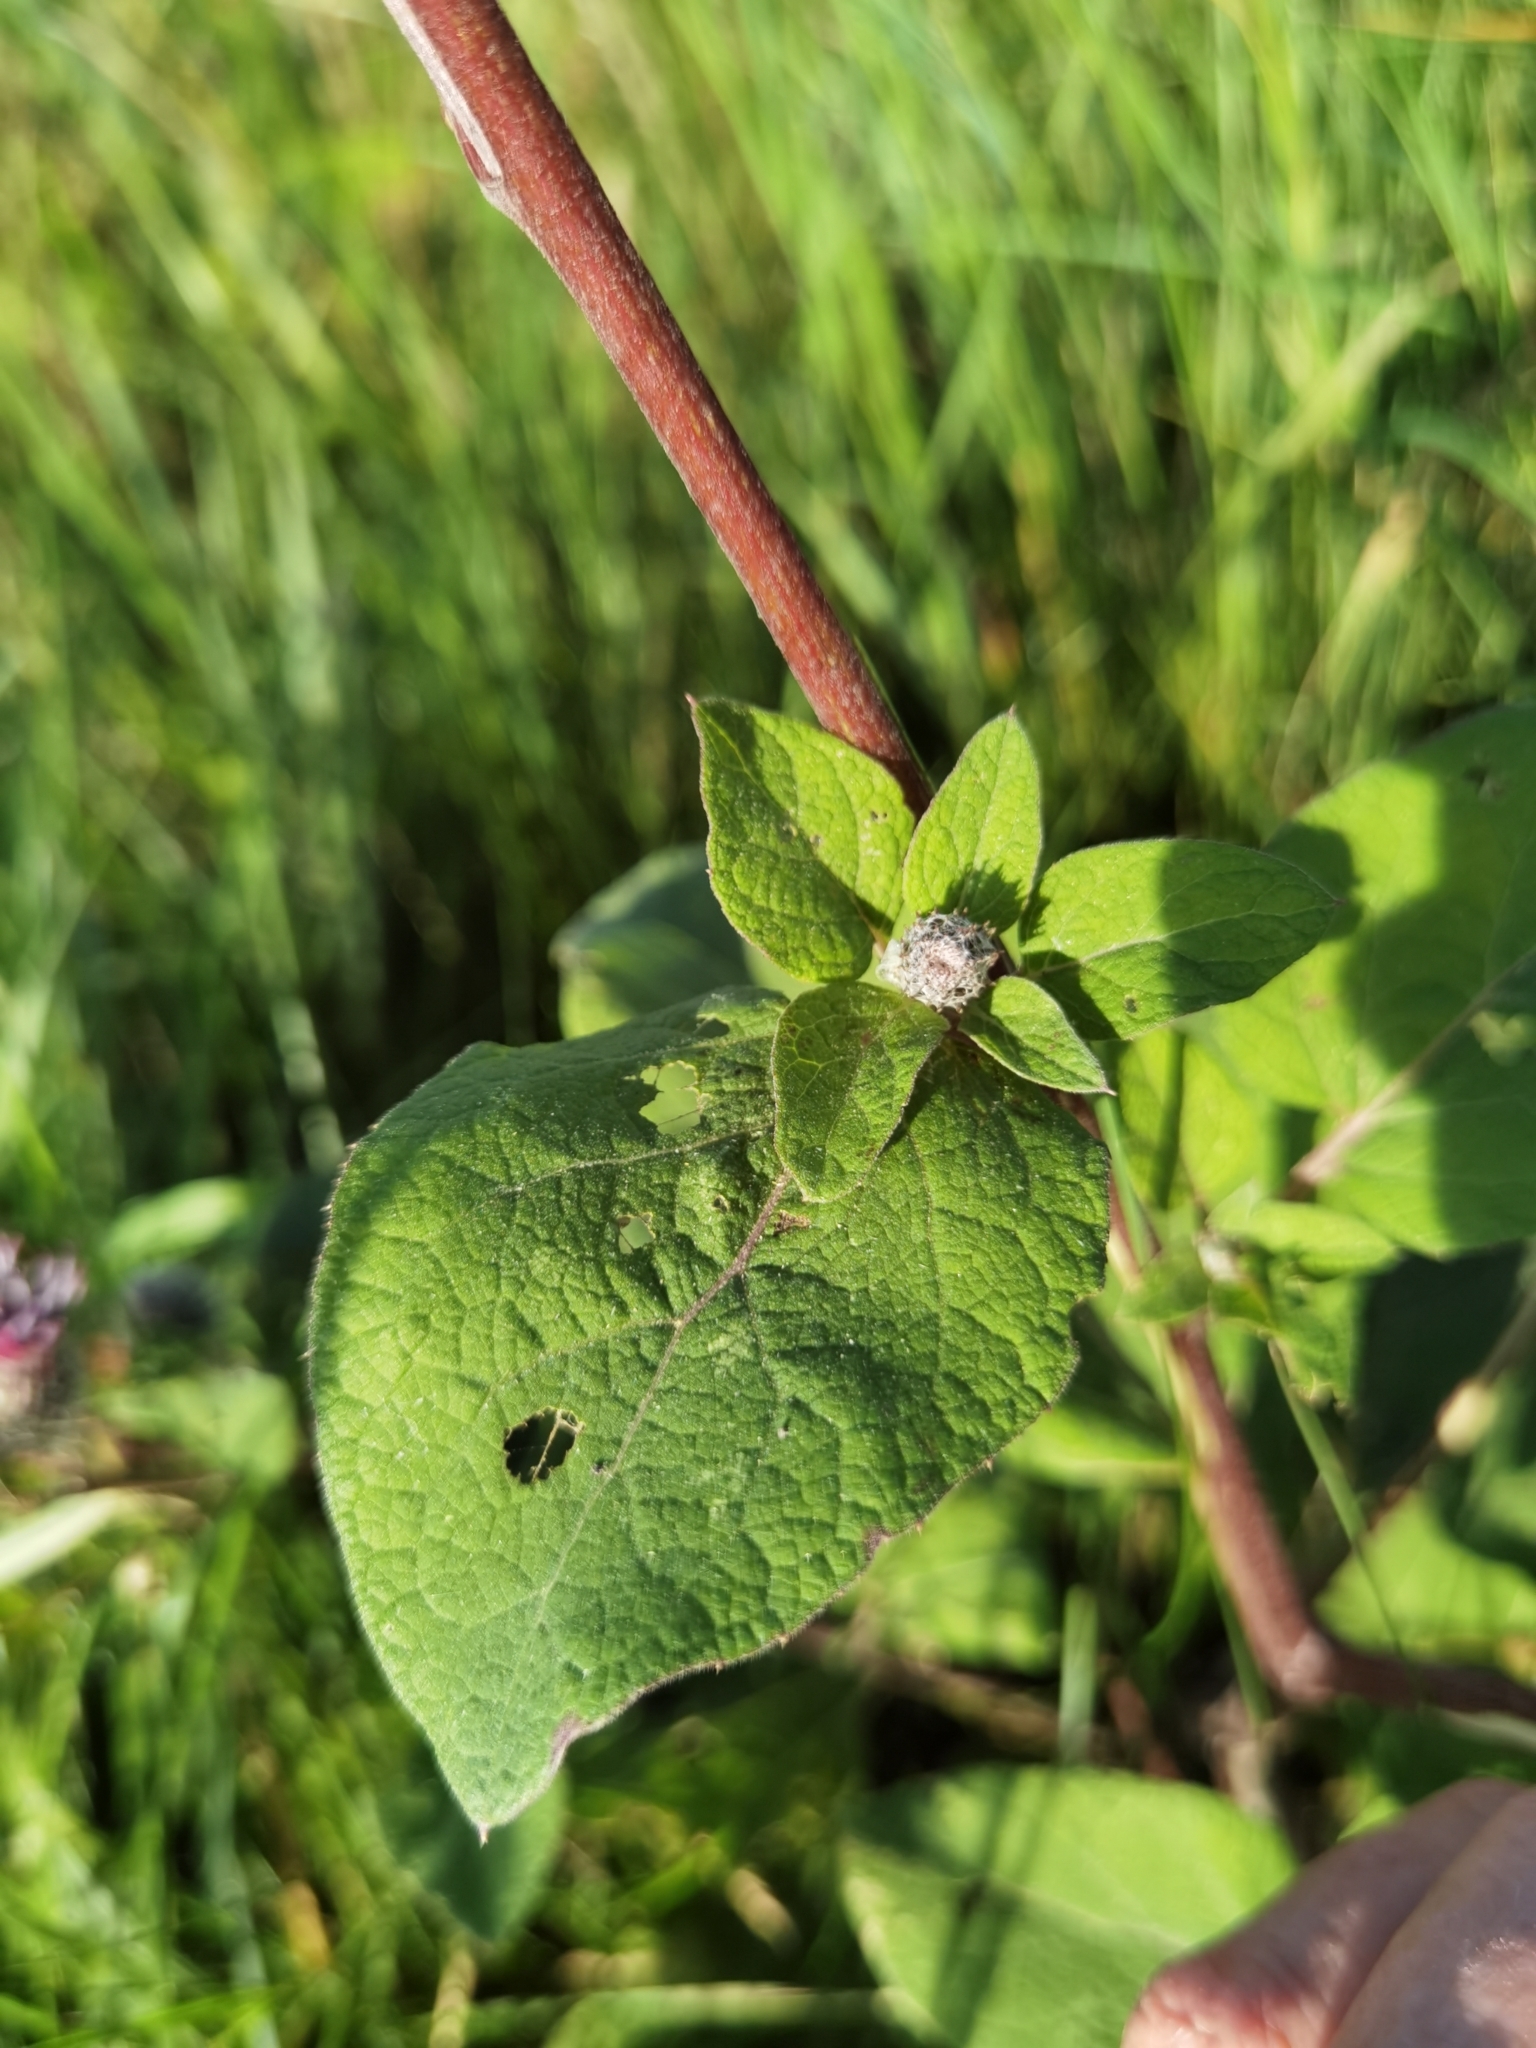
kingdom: Plantae
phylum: Tracheophyta
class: Magnoliopsida
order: Asterales
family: Asteraceae
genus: Arctium
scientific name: Arctium tomentosum
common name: Woolly burdock
